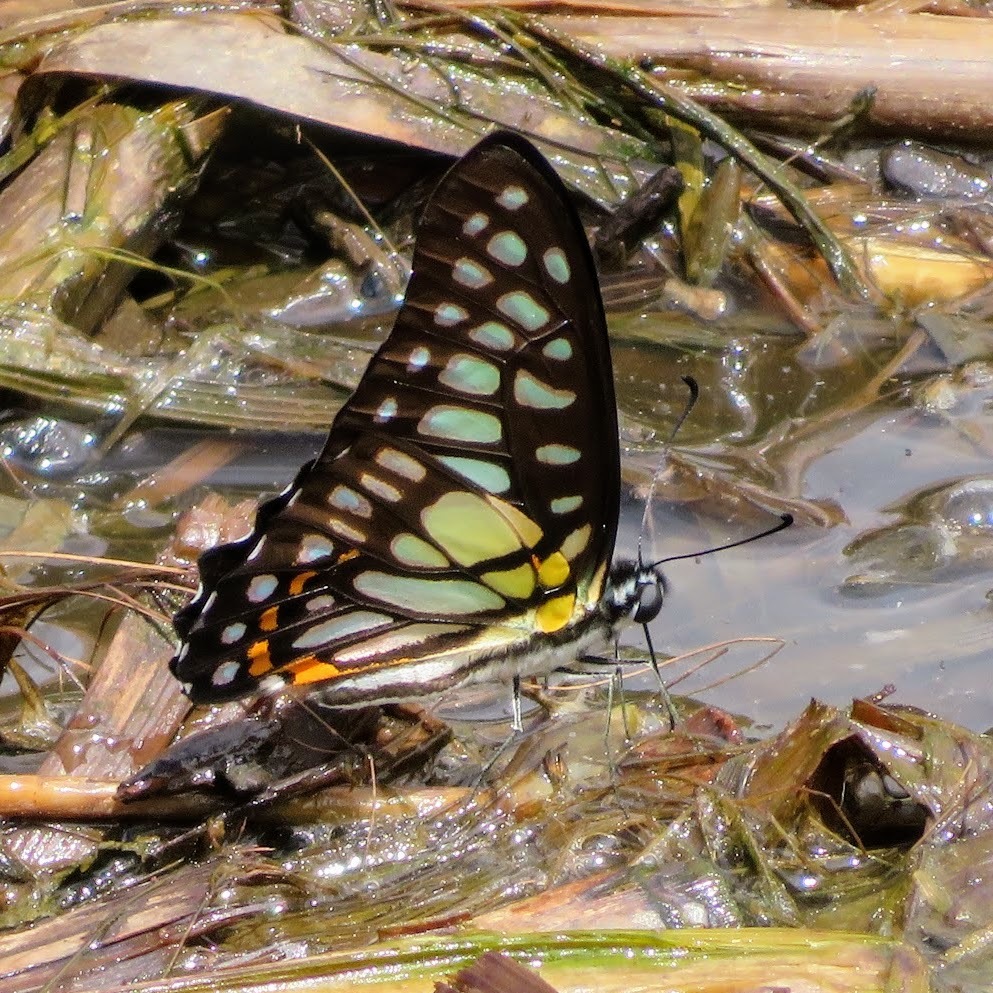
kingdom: Animalia
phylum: Arthropoda
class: Insecta
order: Lepidoptera
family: Papilionidae
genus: Graphium
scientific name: Graphium chironides
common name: Veined jay
